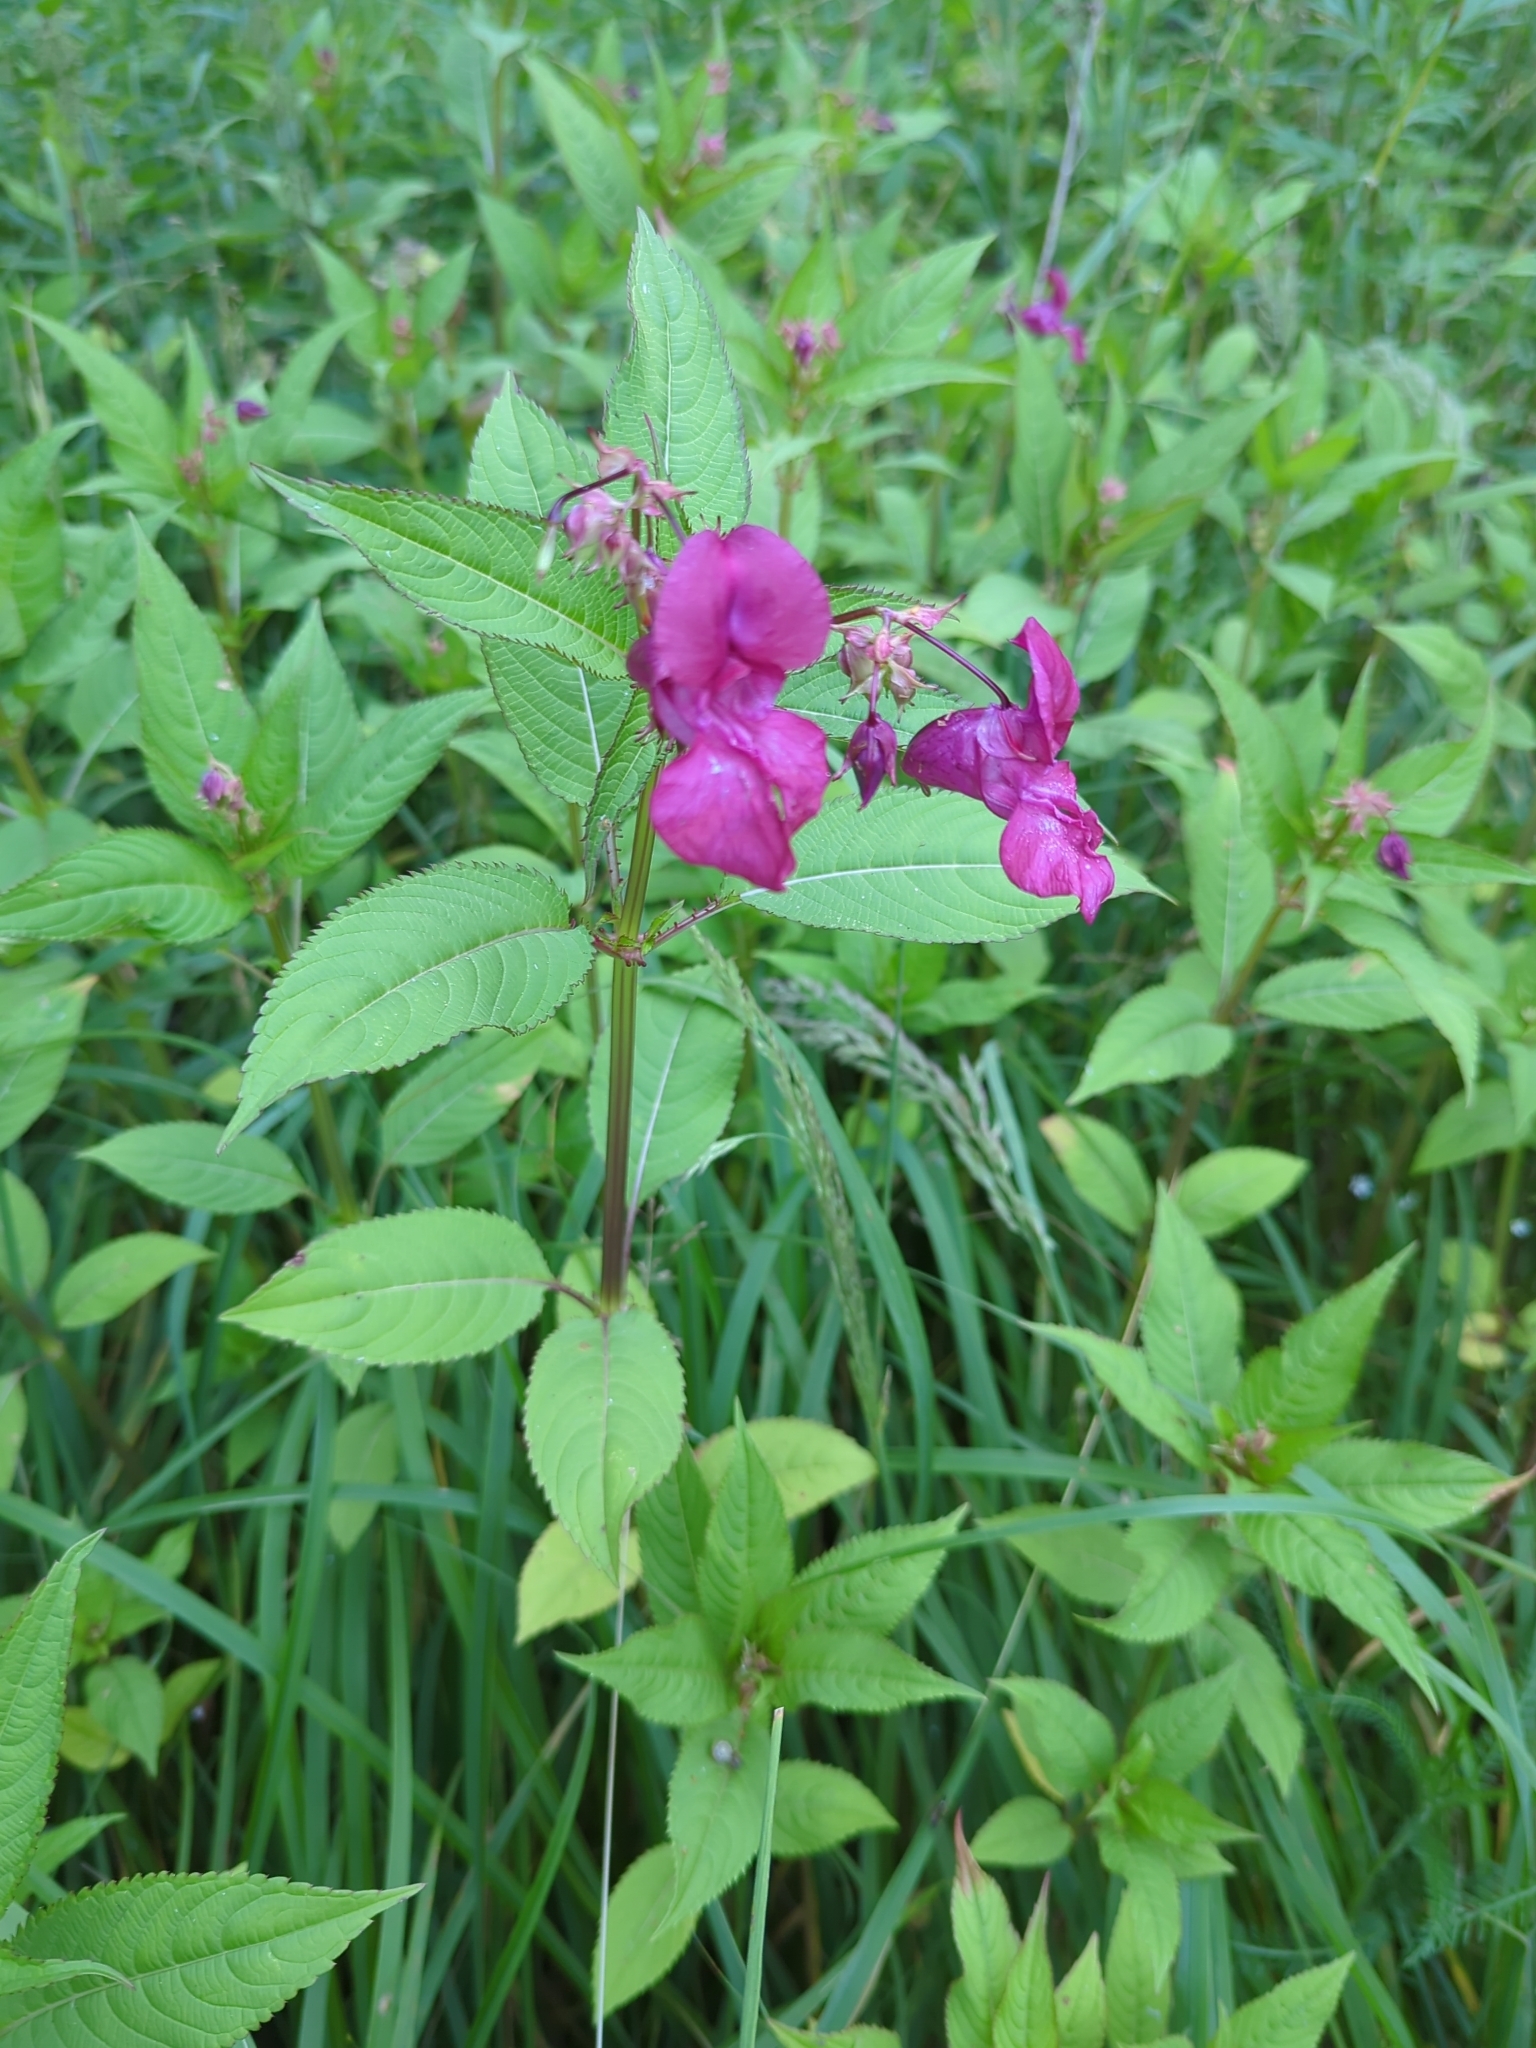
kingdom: Plantae
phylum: Tracheophyta
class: Magnoliopsida
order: Ericales
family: Balsaminaceae
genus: Impatiens
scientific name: Impatiens glandulifera
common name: Himalayan balsam
